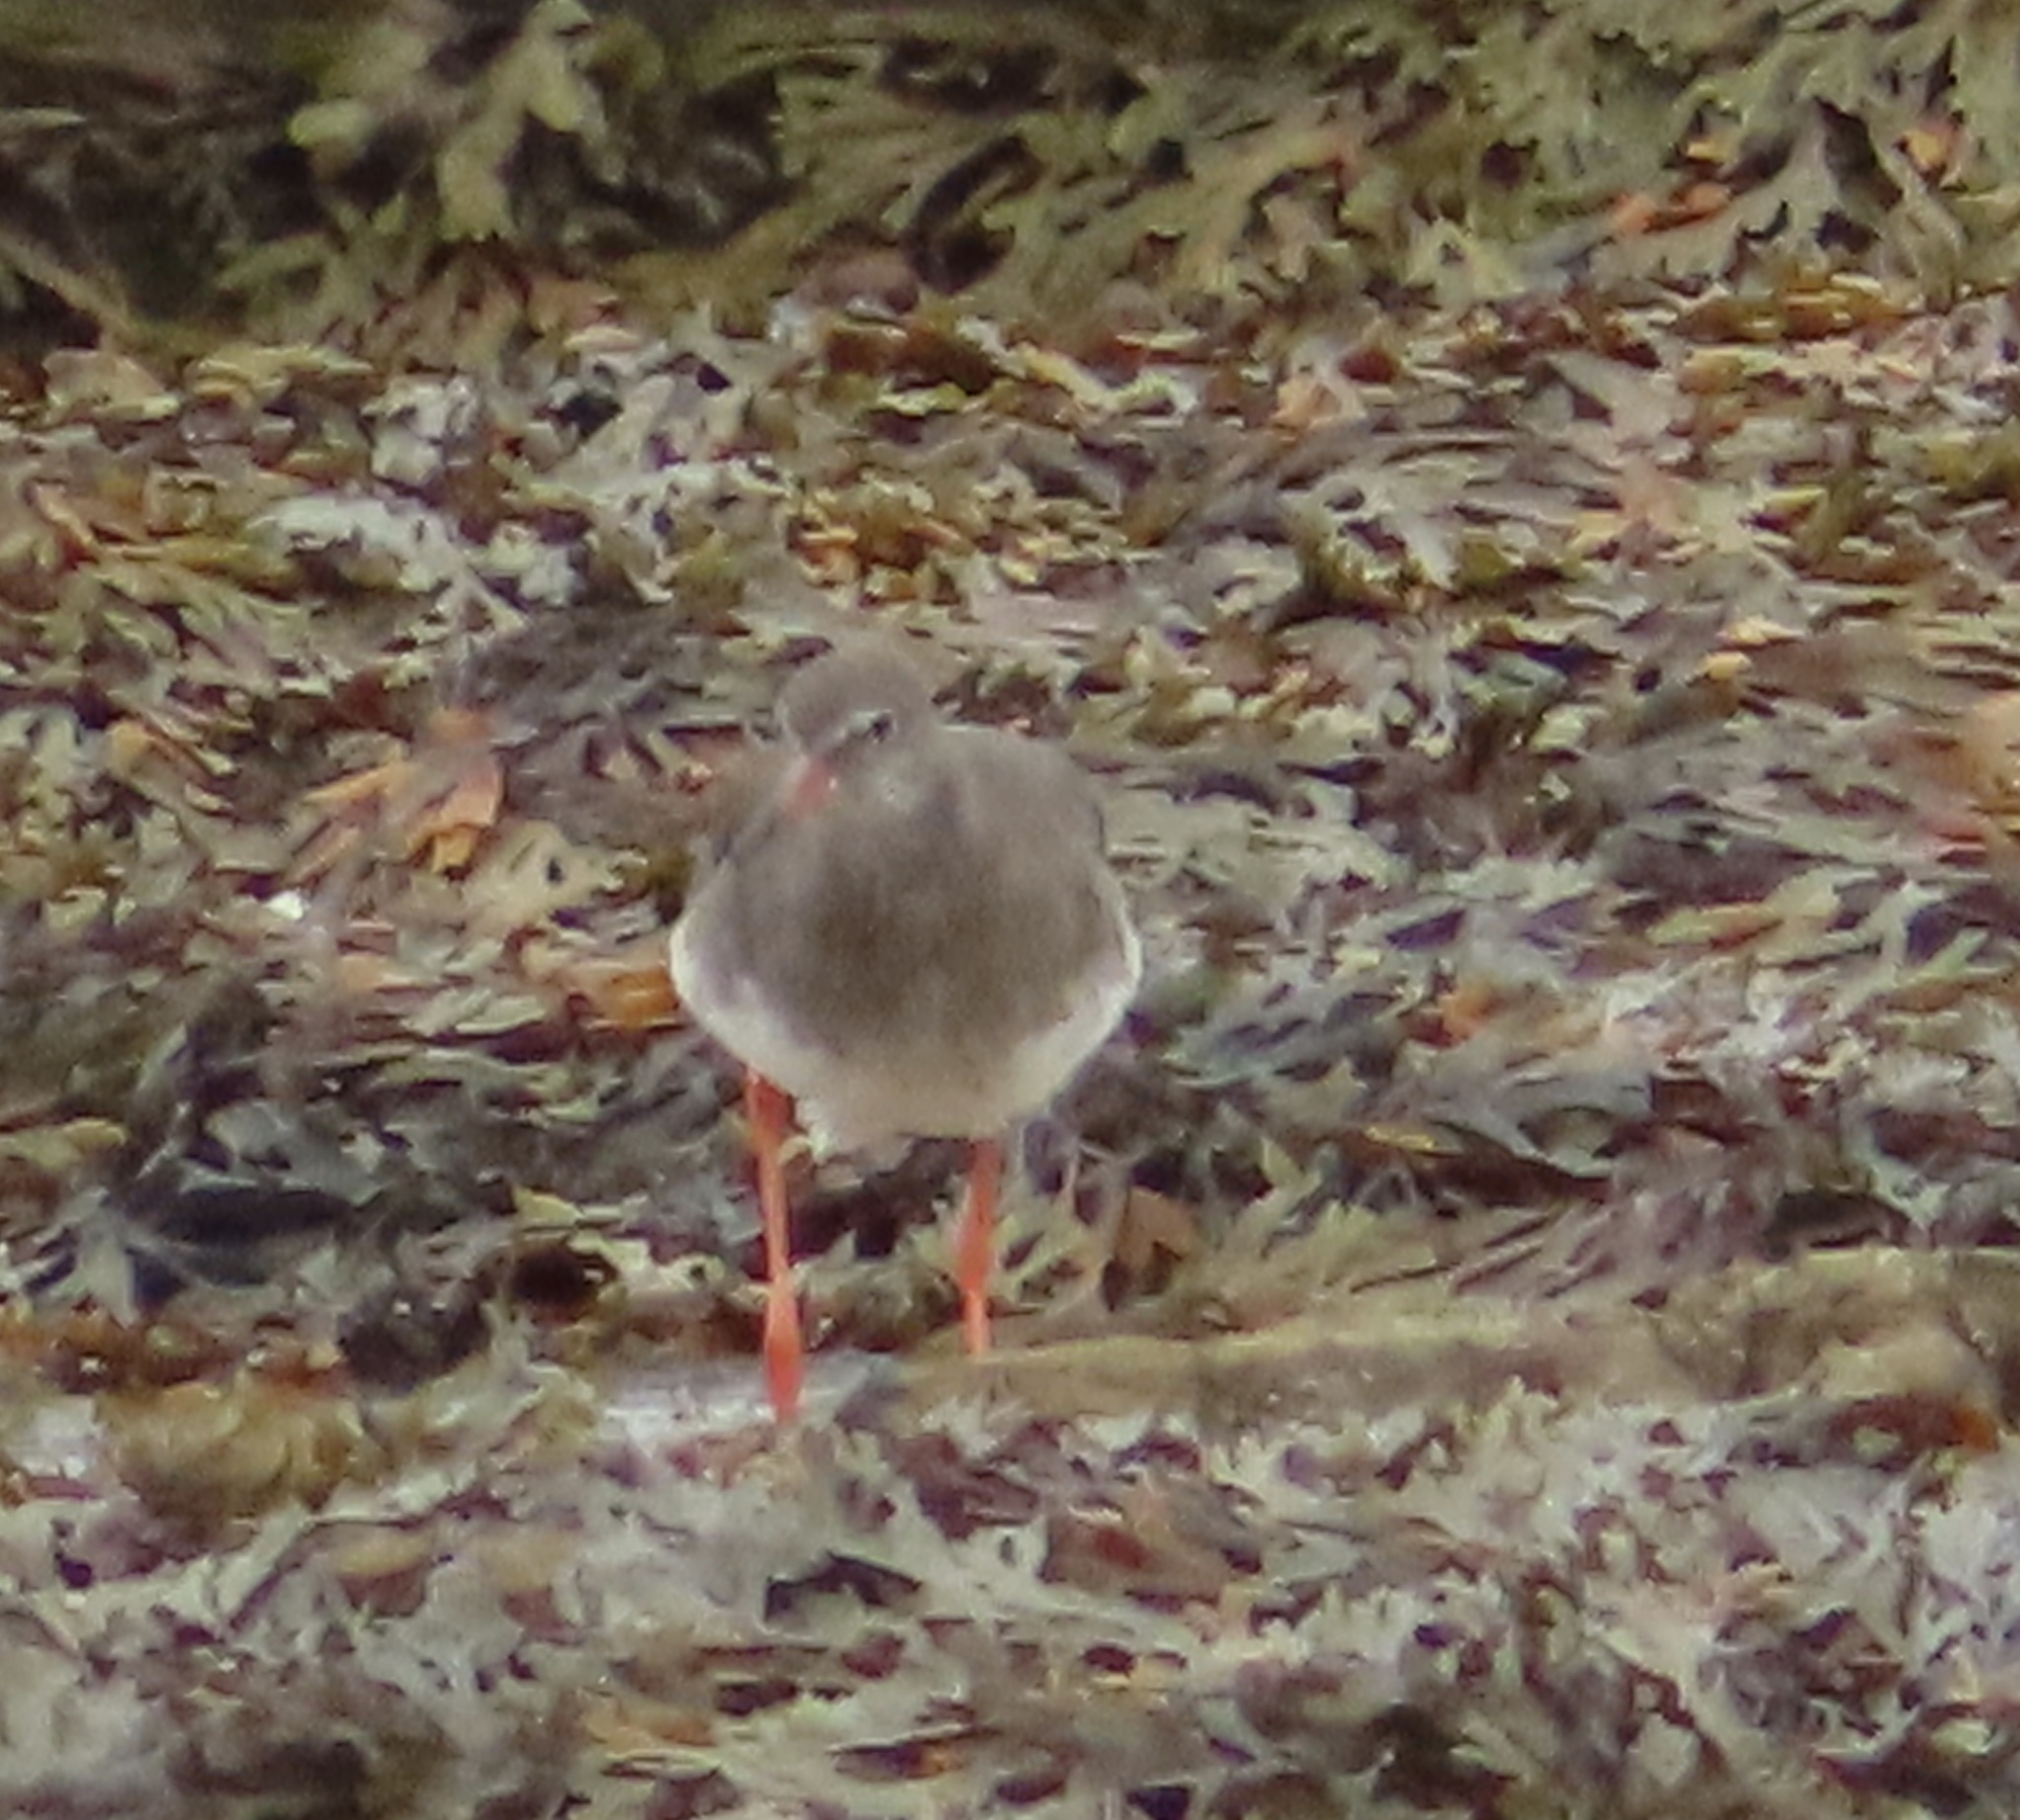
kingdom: Animalia
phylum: Chordata
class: Aves
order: Charadriiformes
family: Scolopacidae
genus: Tringa
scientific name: Tringa totanus
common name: Common redshank
